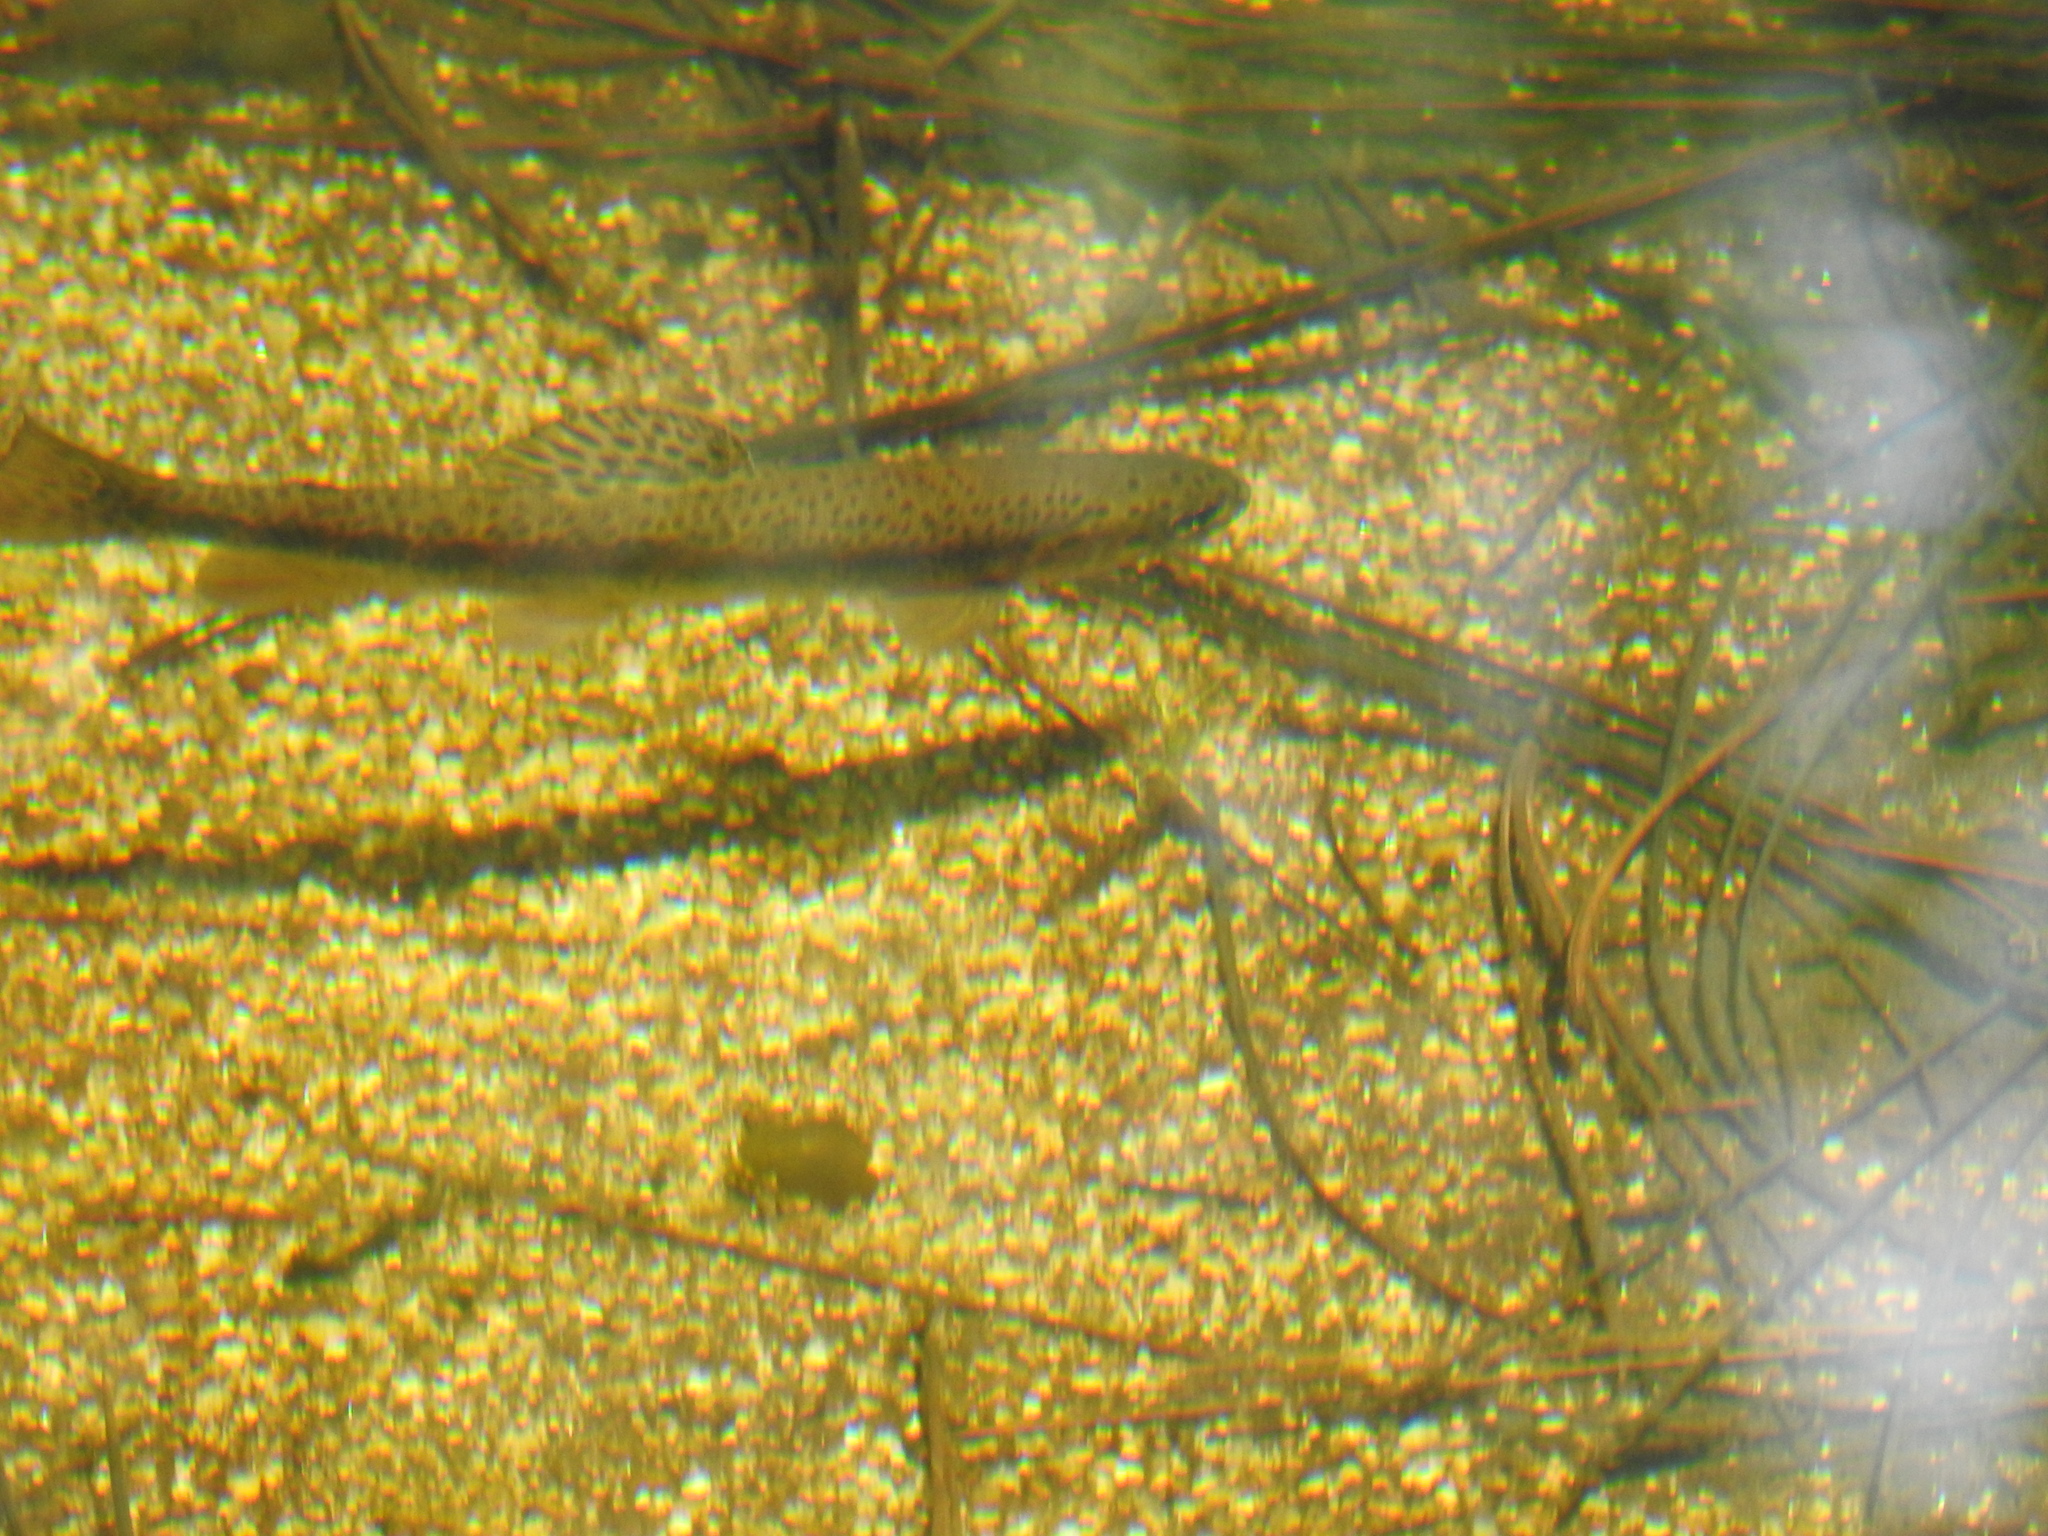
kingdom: Animalia
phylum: Chordata
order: Salmoniformes
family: Salmonidae
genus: Oncorhynchus
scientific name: Oncorhynchus
